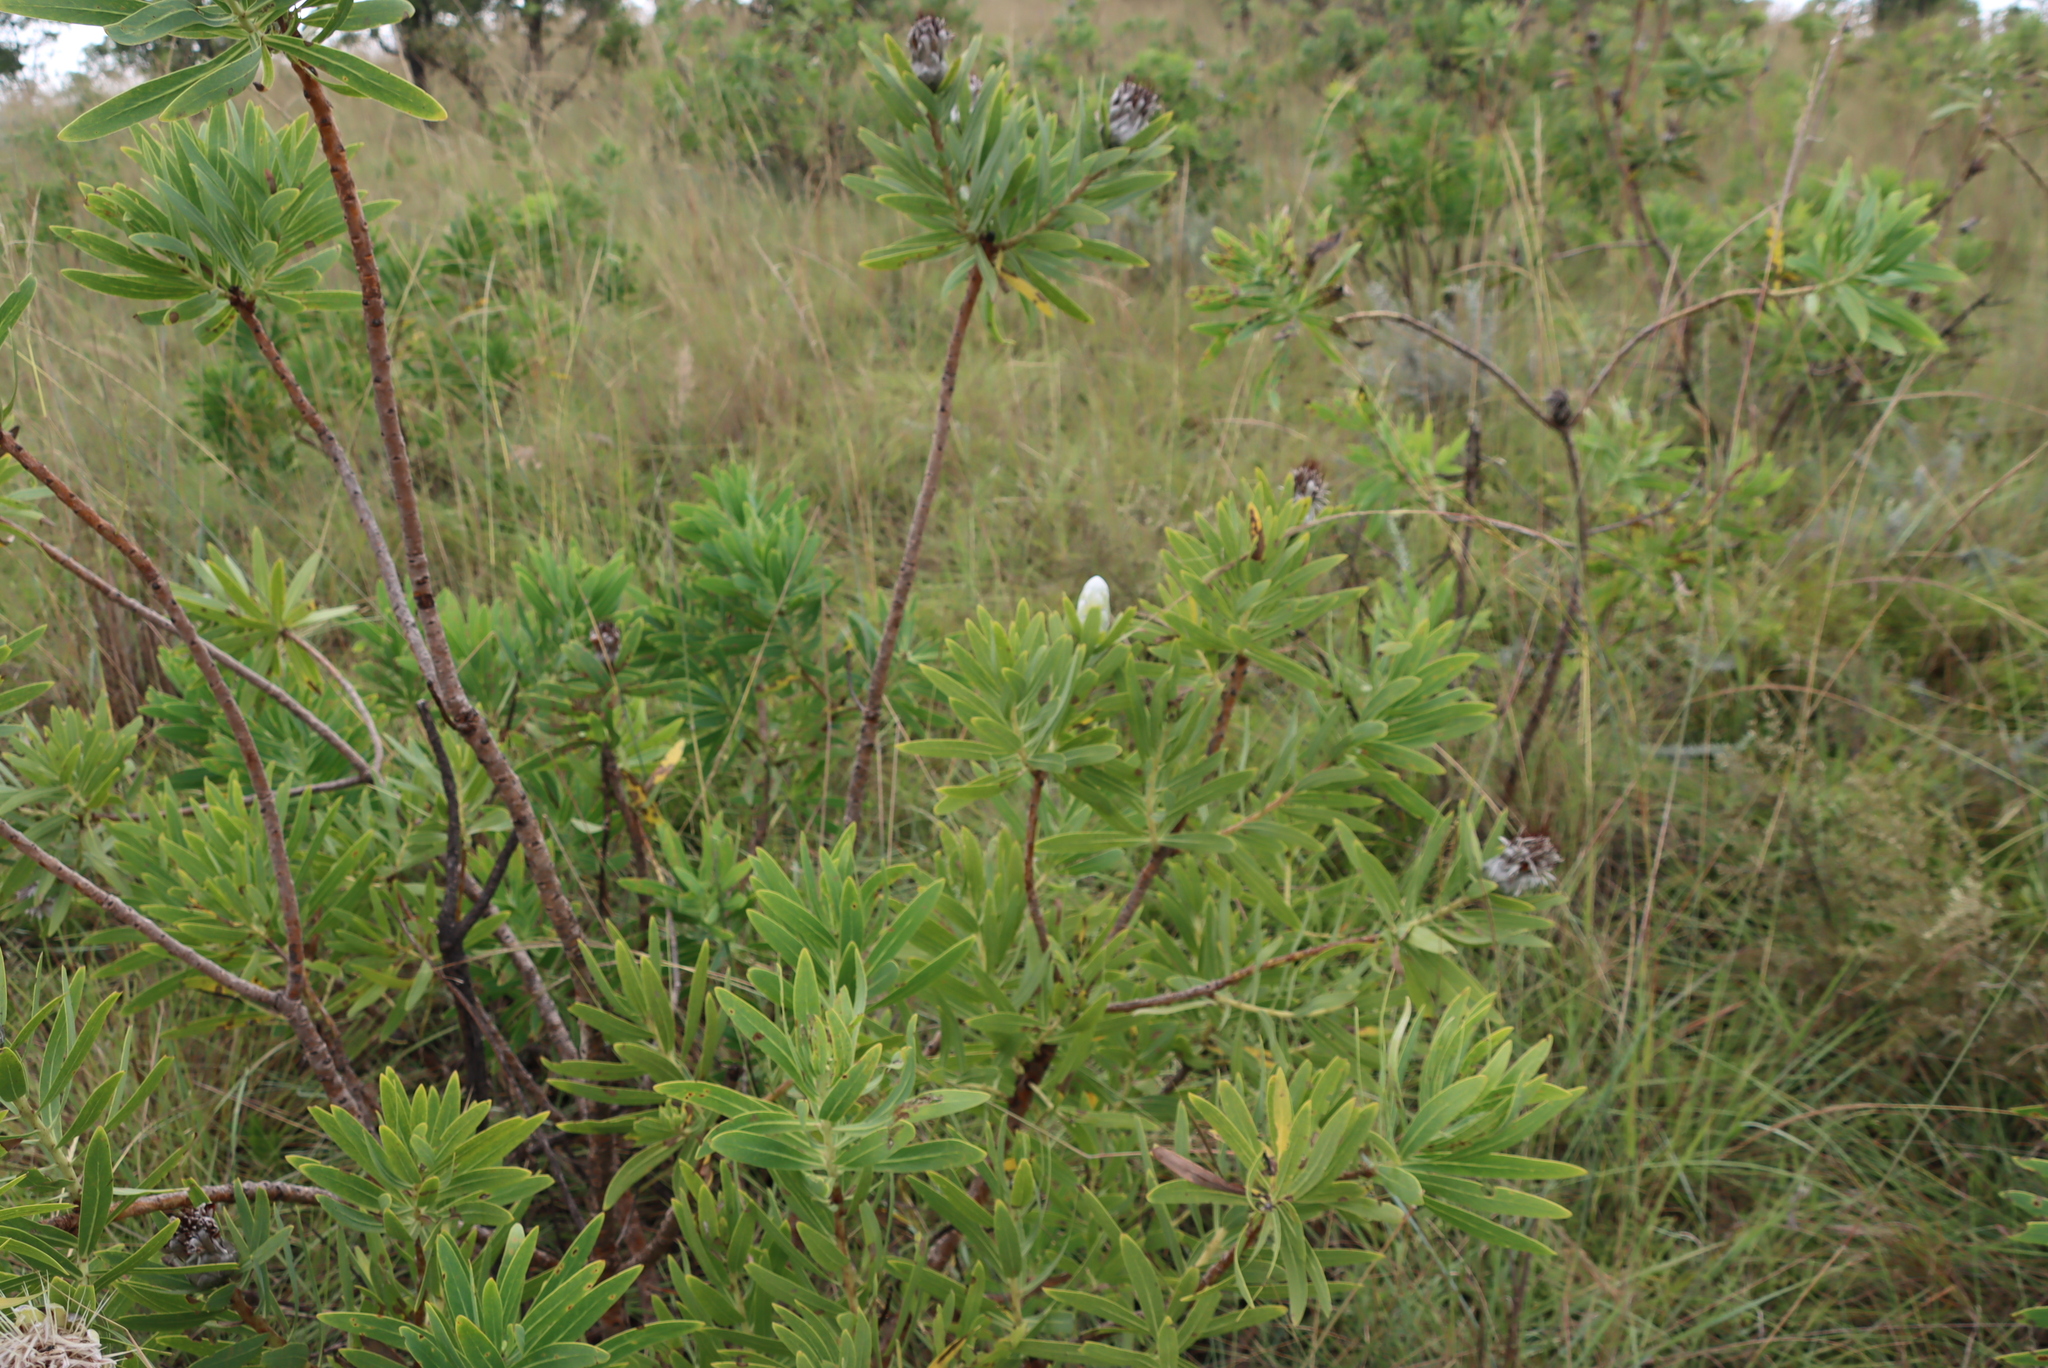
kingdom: Plantae
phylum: Tracheophyta
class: Magnoliopsida
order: Proteales
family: Proteaceae
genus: Protea
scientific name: Protea gaguedi
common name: African protea
